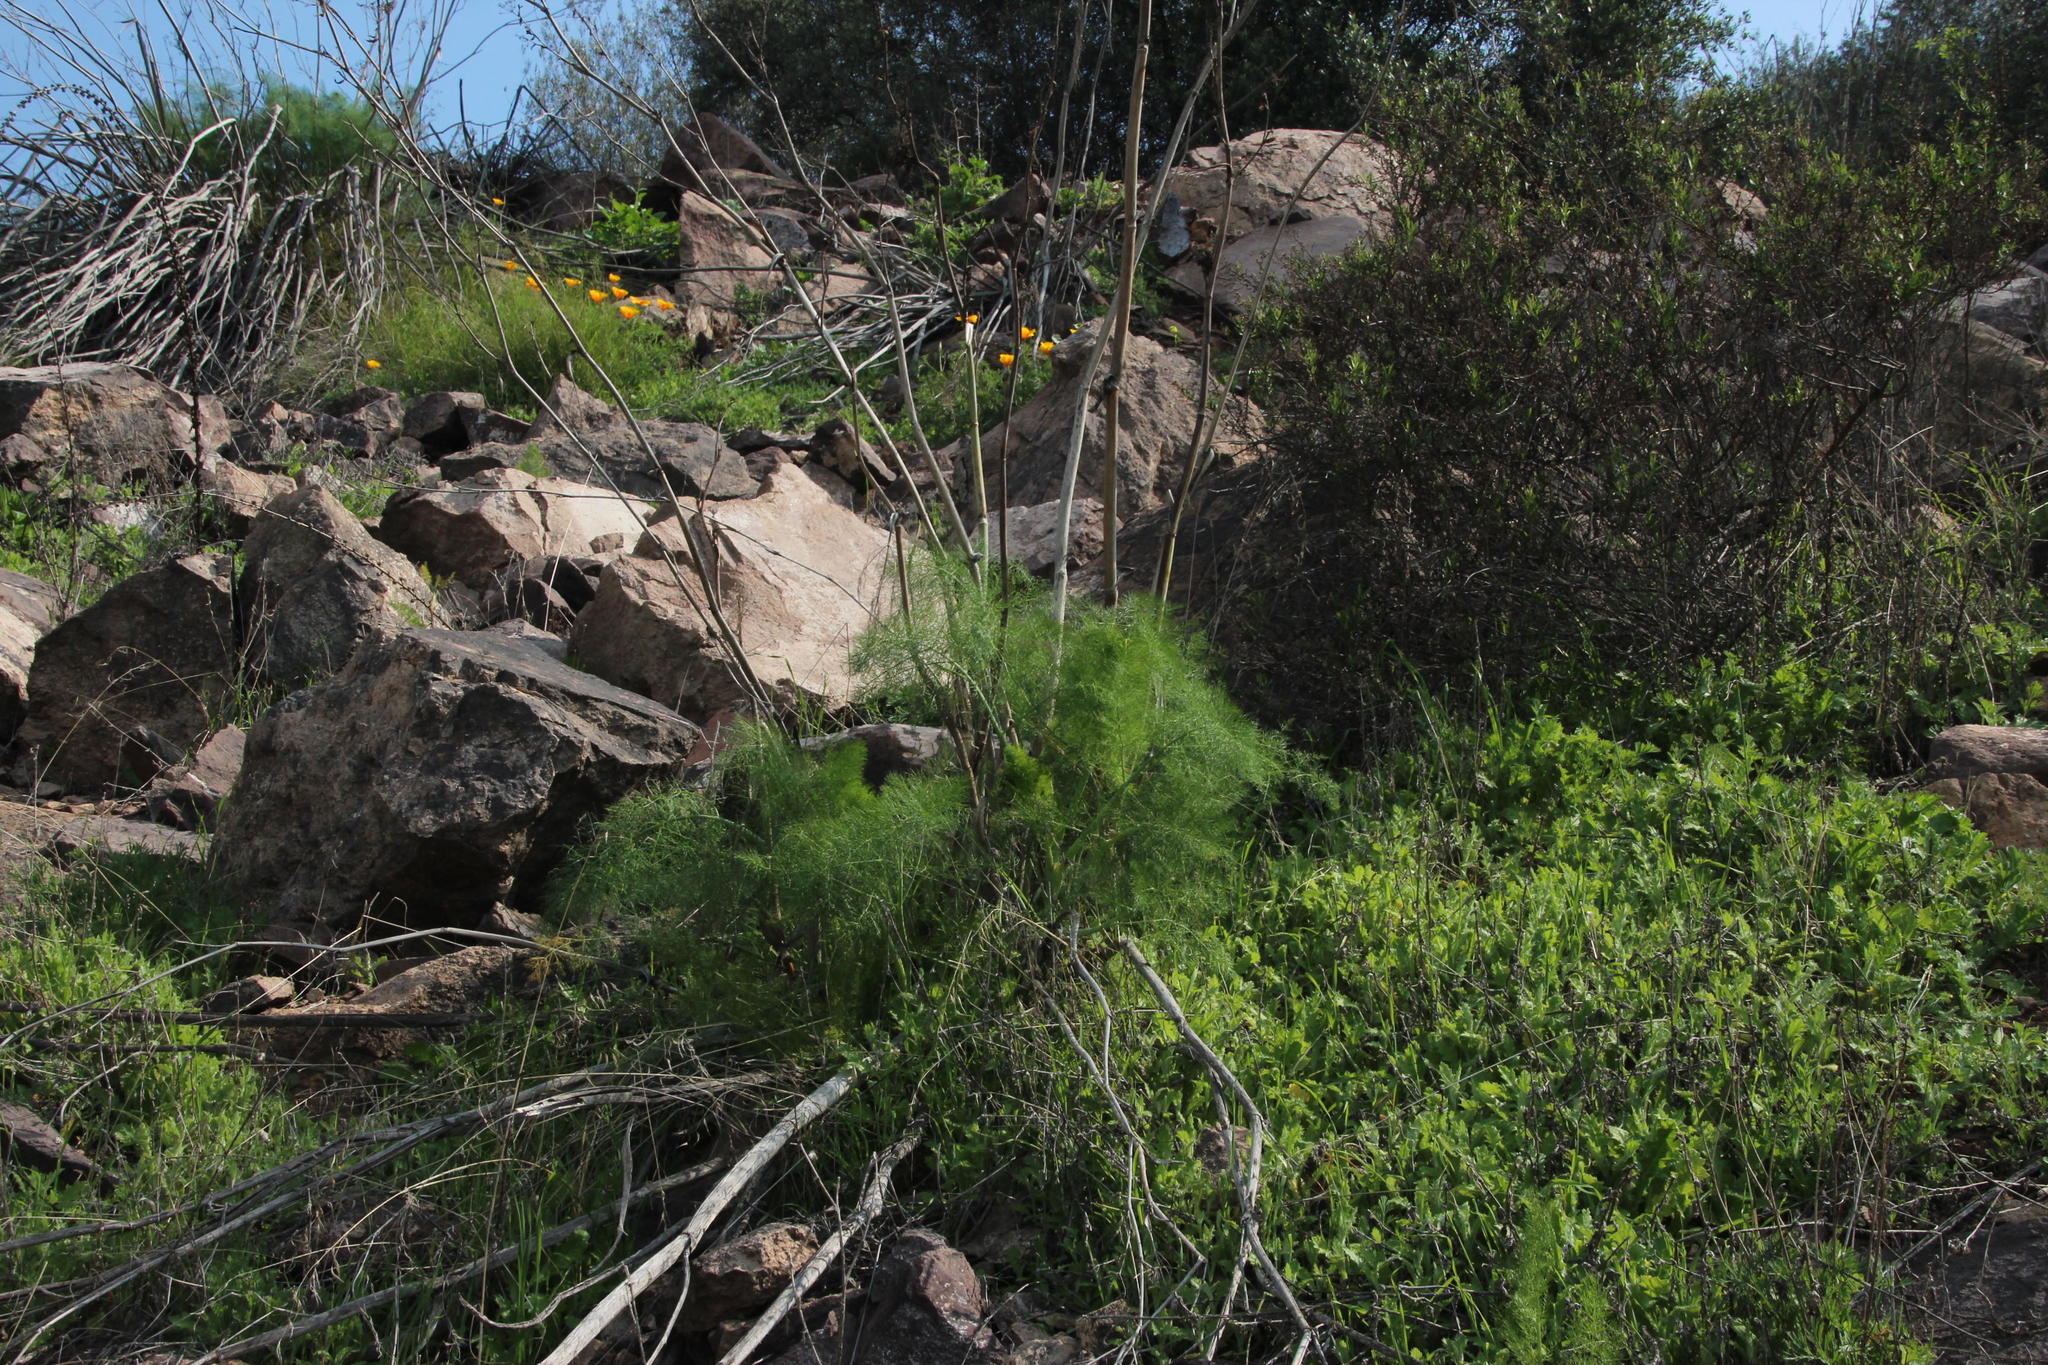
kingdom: Plantae
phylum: Tracheophyta
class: Magnoliopsida
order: Apiales
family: Apiaceae
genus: Foeniculum
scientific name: Foeniculum vulgare
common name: Fennel
